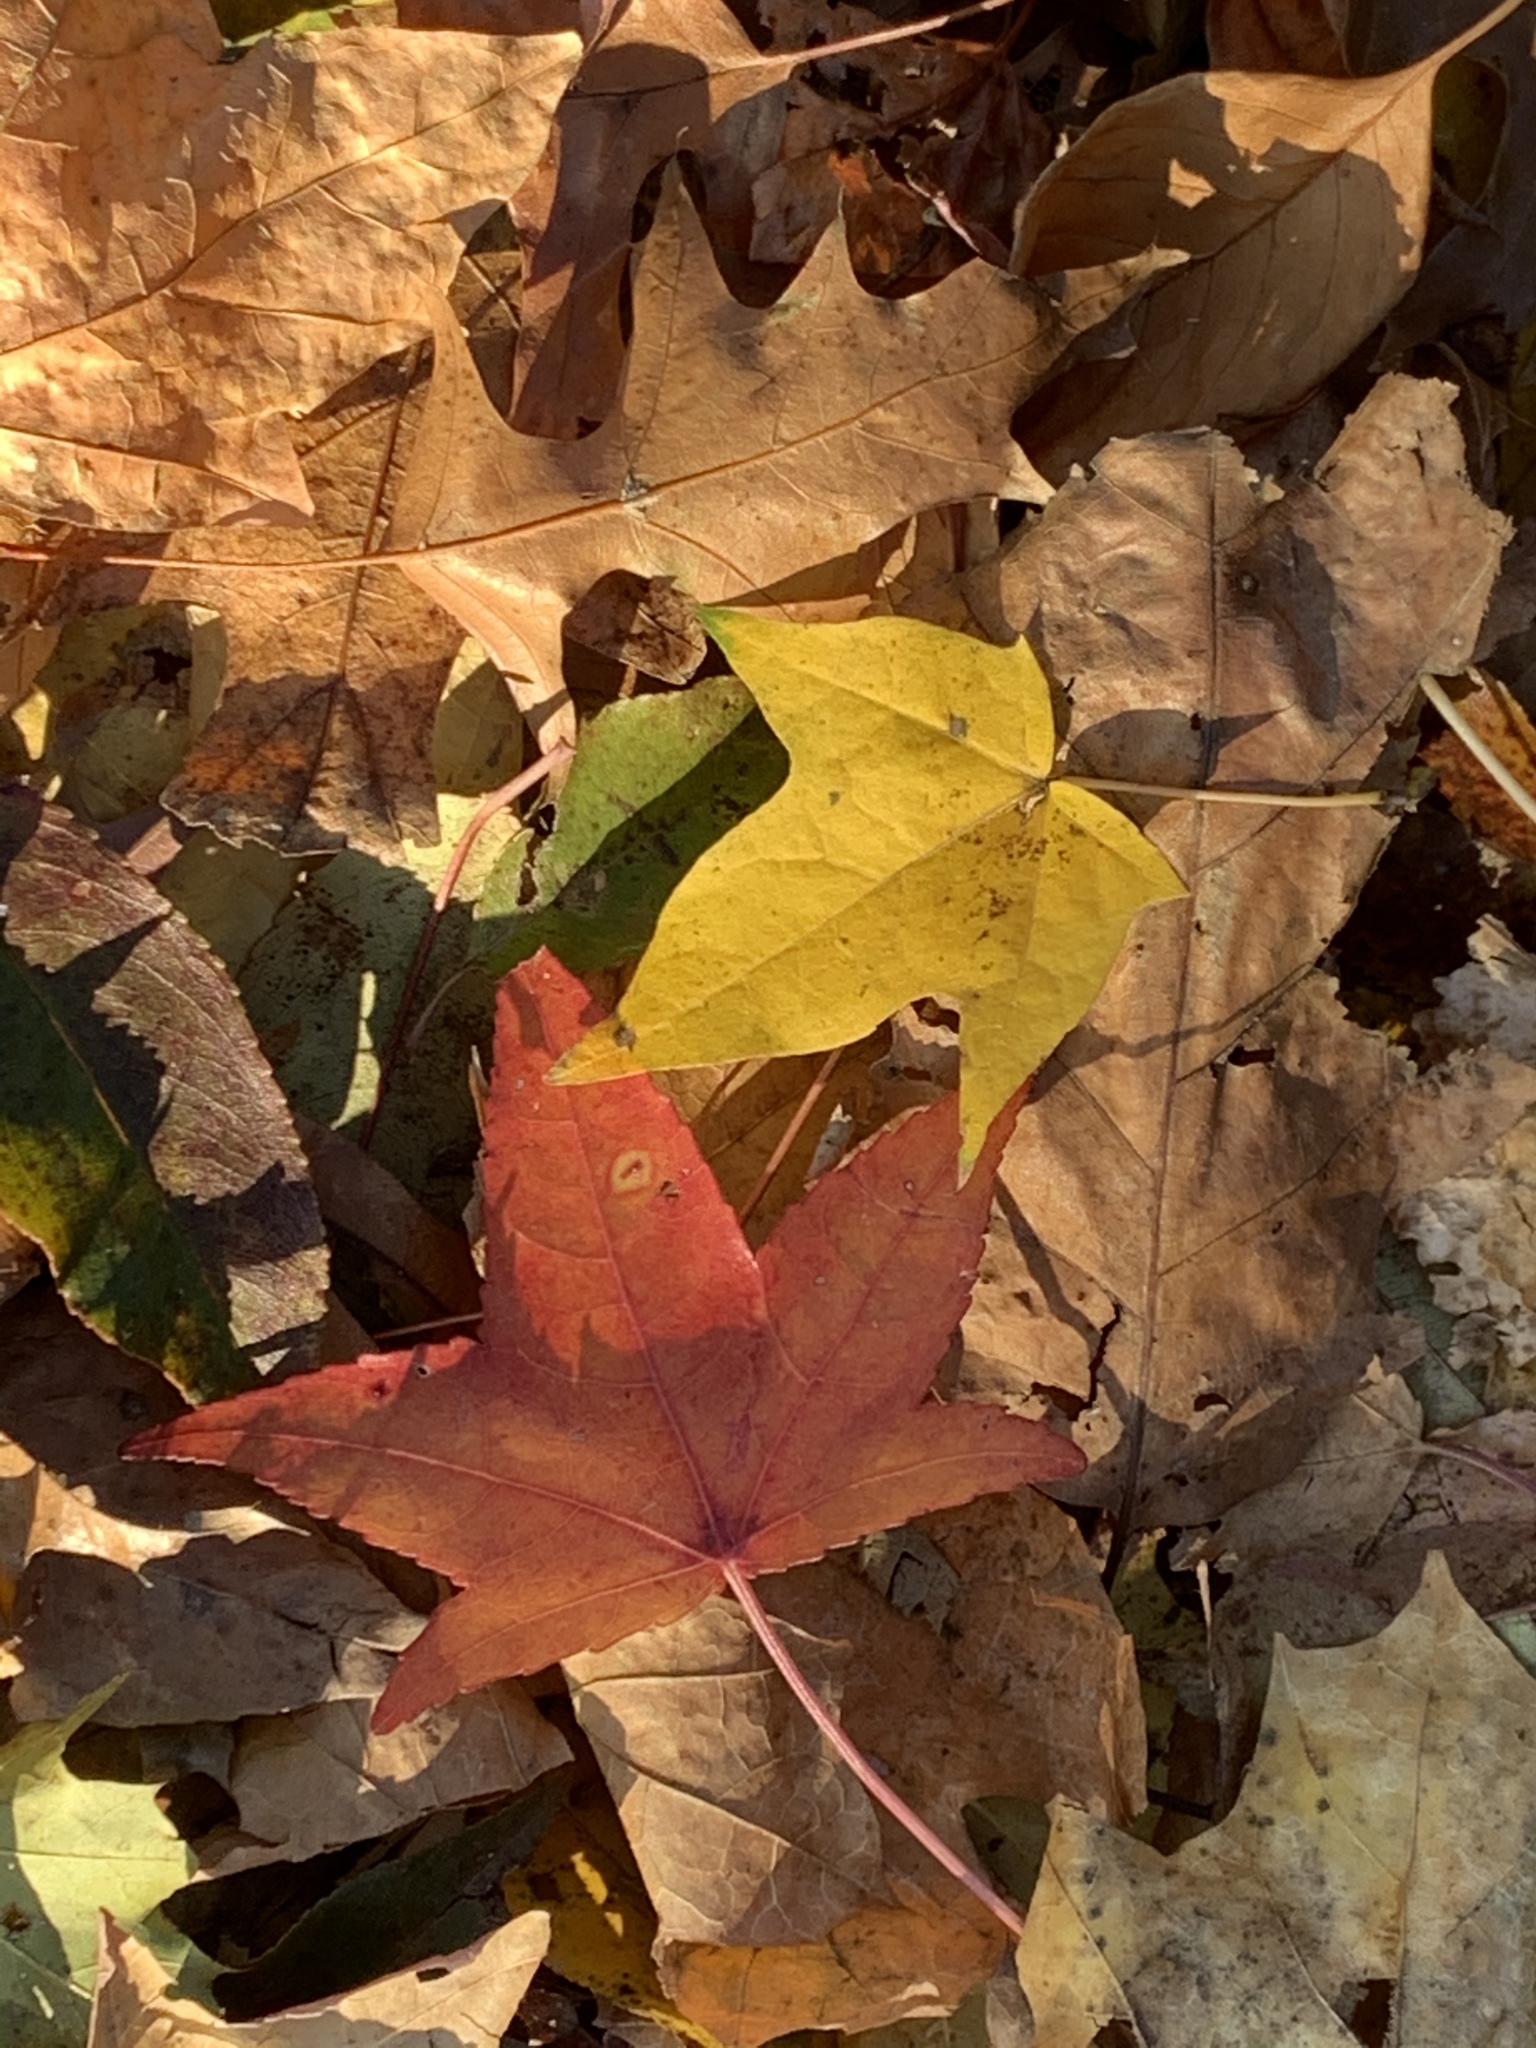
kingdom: Plantae
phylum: Tracheophyta
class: Magnoliopsida
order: Saxifragales
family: Altingiaceae
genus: Liquidambar
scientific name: Liquidambar styraciflua
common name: Sweet gum
